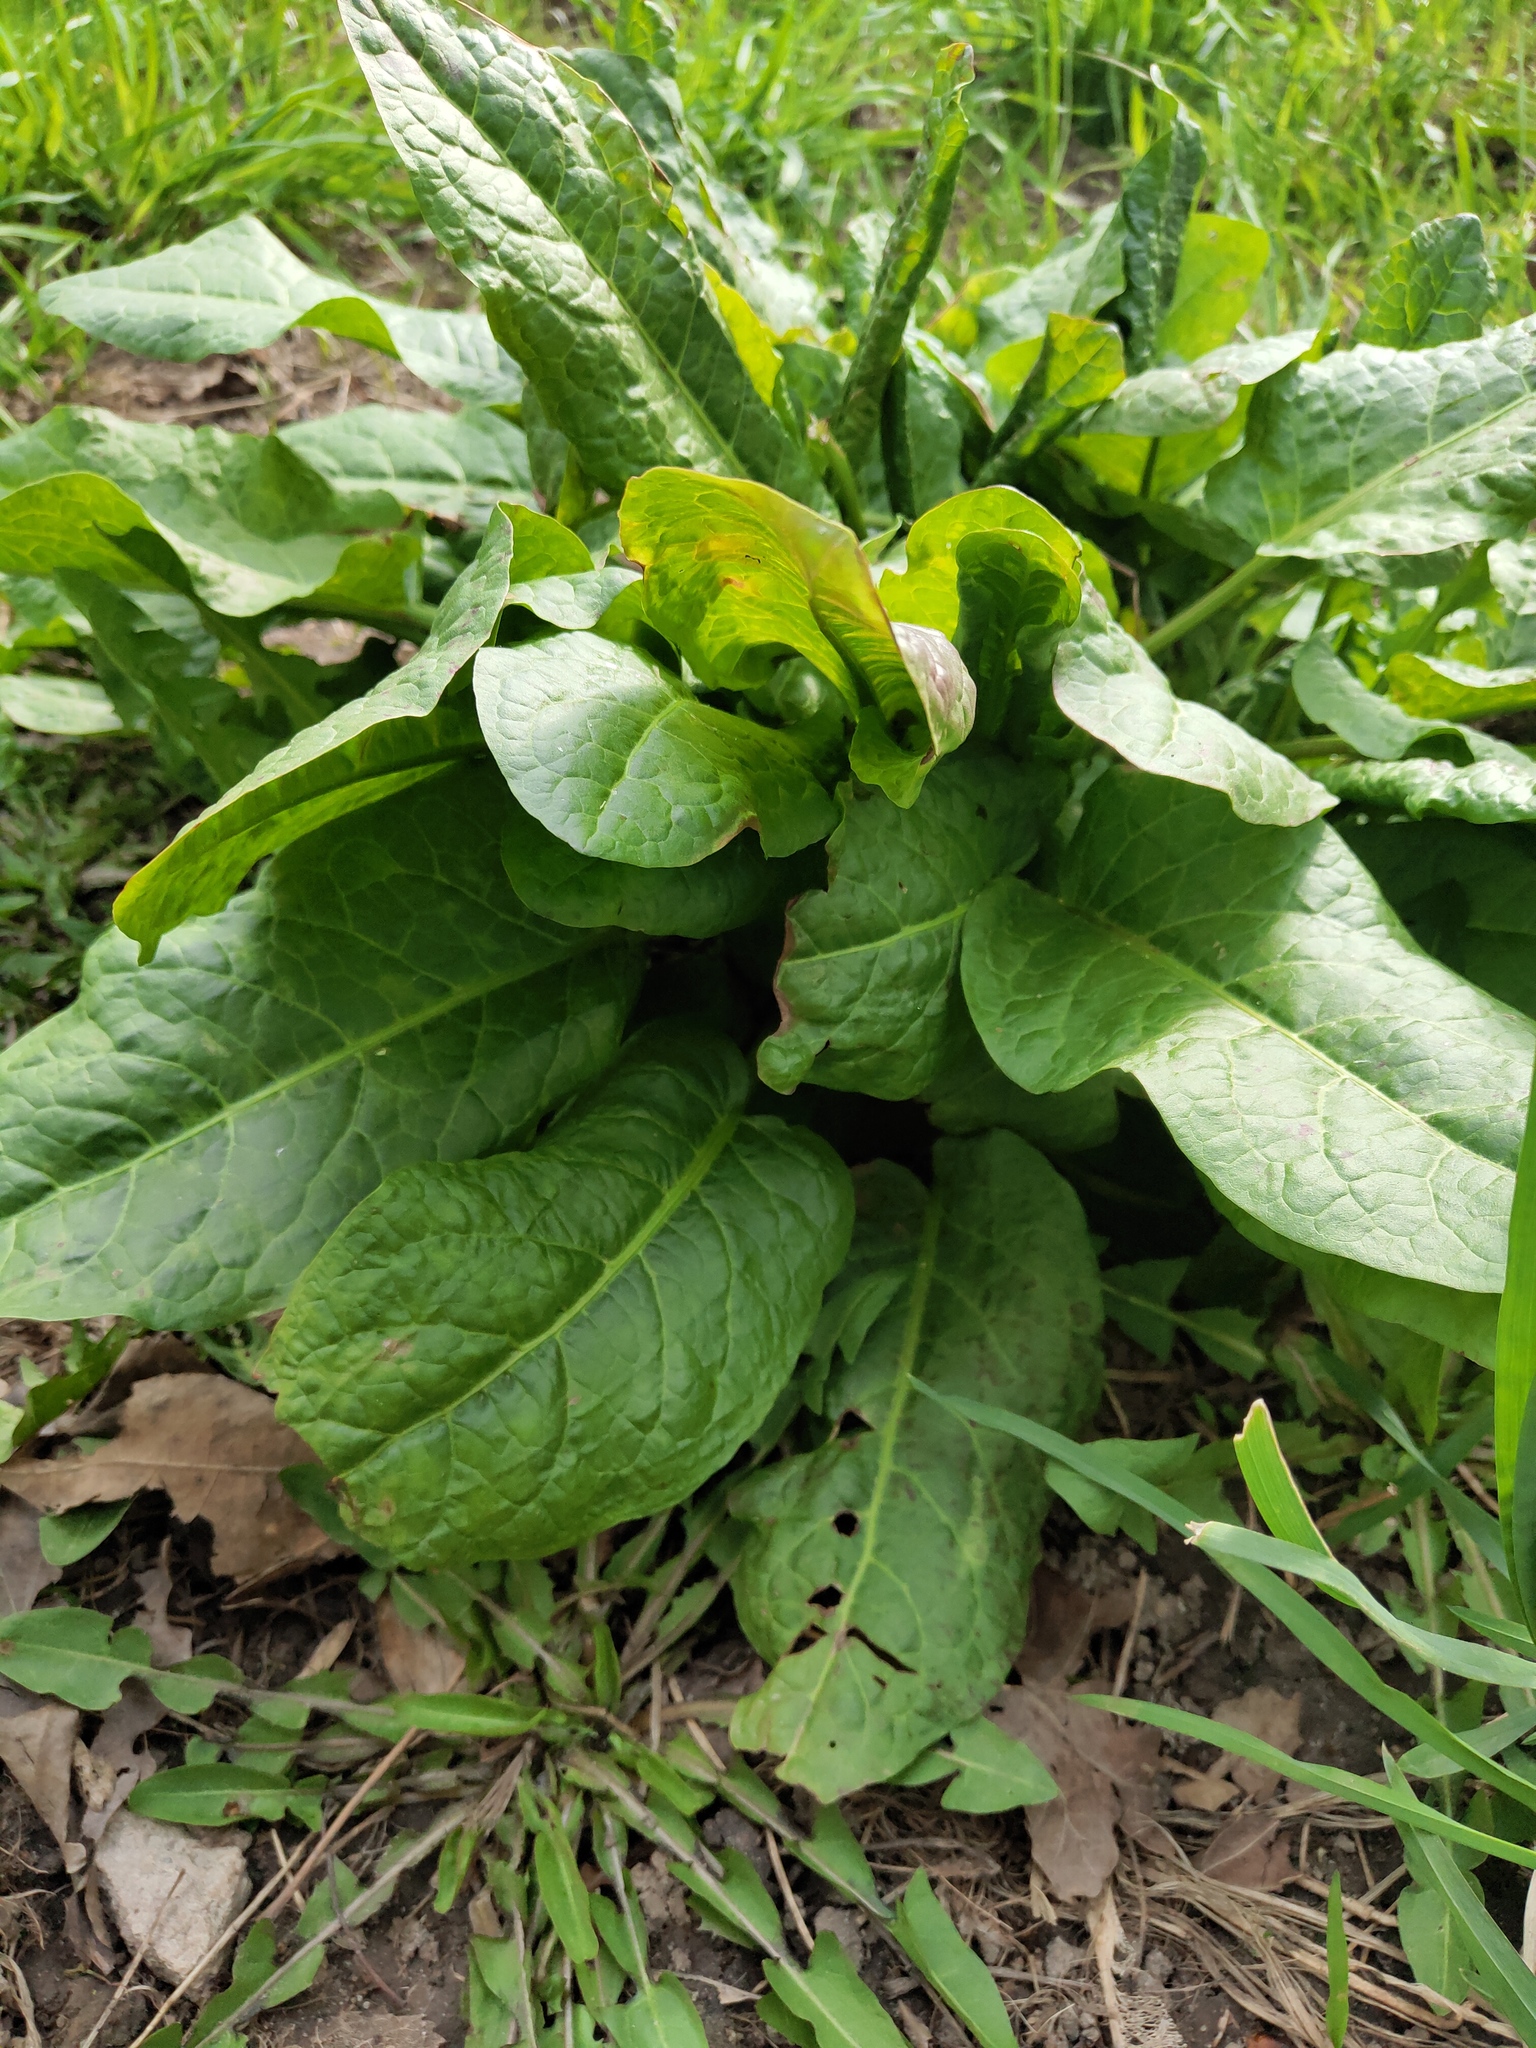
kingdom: Plantae
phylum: Tracheophyta
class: Magnoliopsida
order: Caryophyllales
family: Polygonaceae
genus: Rumex
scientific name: Rumex obtusifolius
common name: Bitter dock
